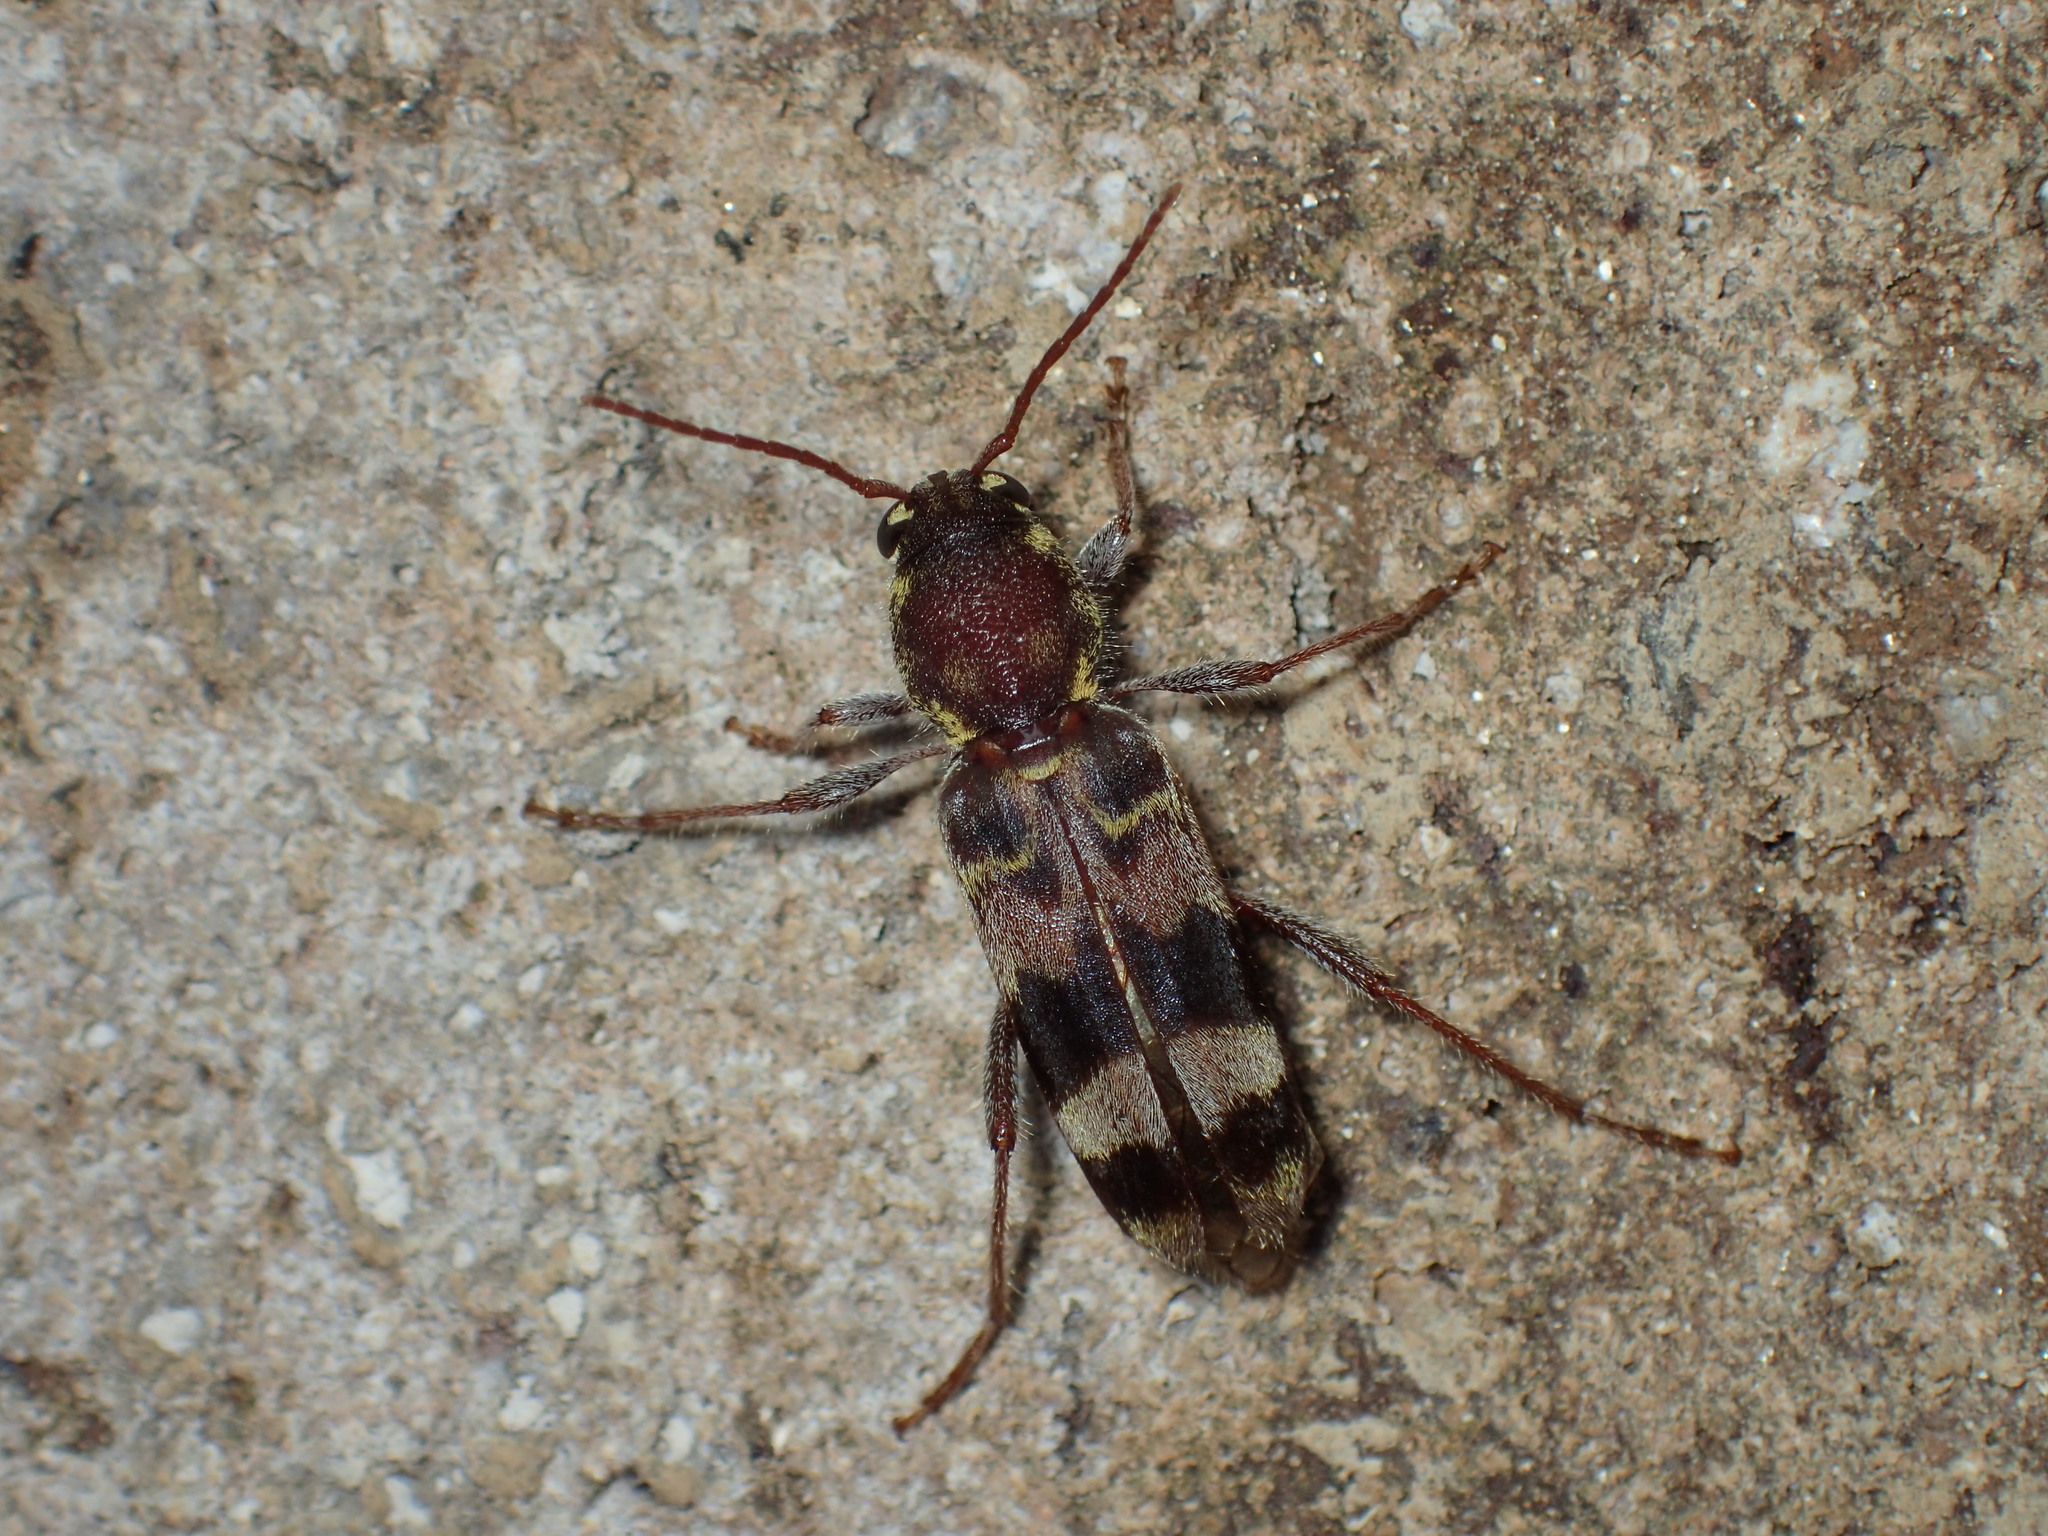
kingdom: Animalia
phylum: Arthropoda
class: Insecta
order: Coleoptera
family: Cerambycidae
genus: Xylotrechus
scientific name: Xylotrechus colonus
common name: Long-horned beetle
